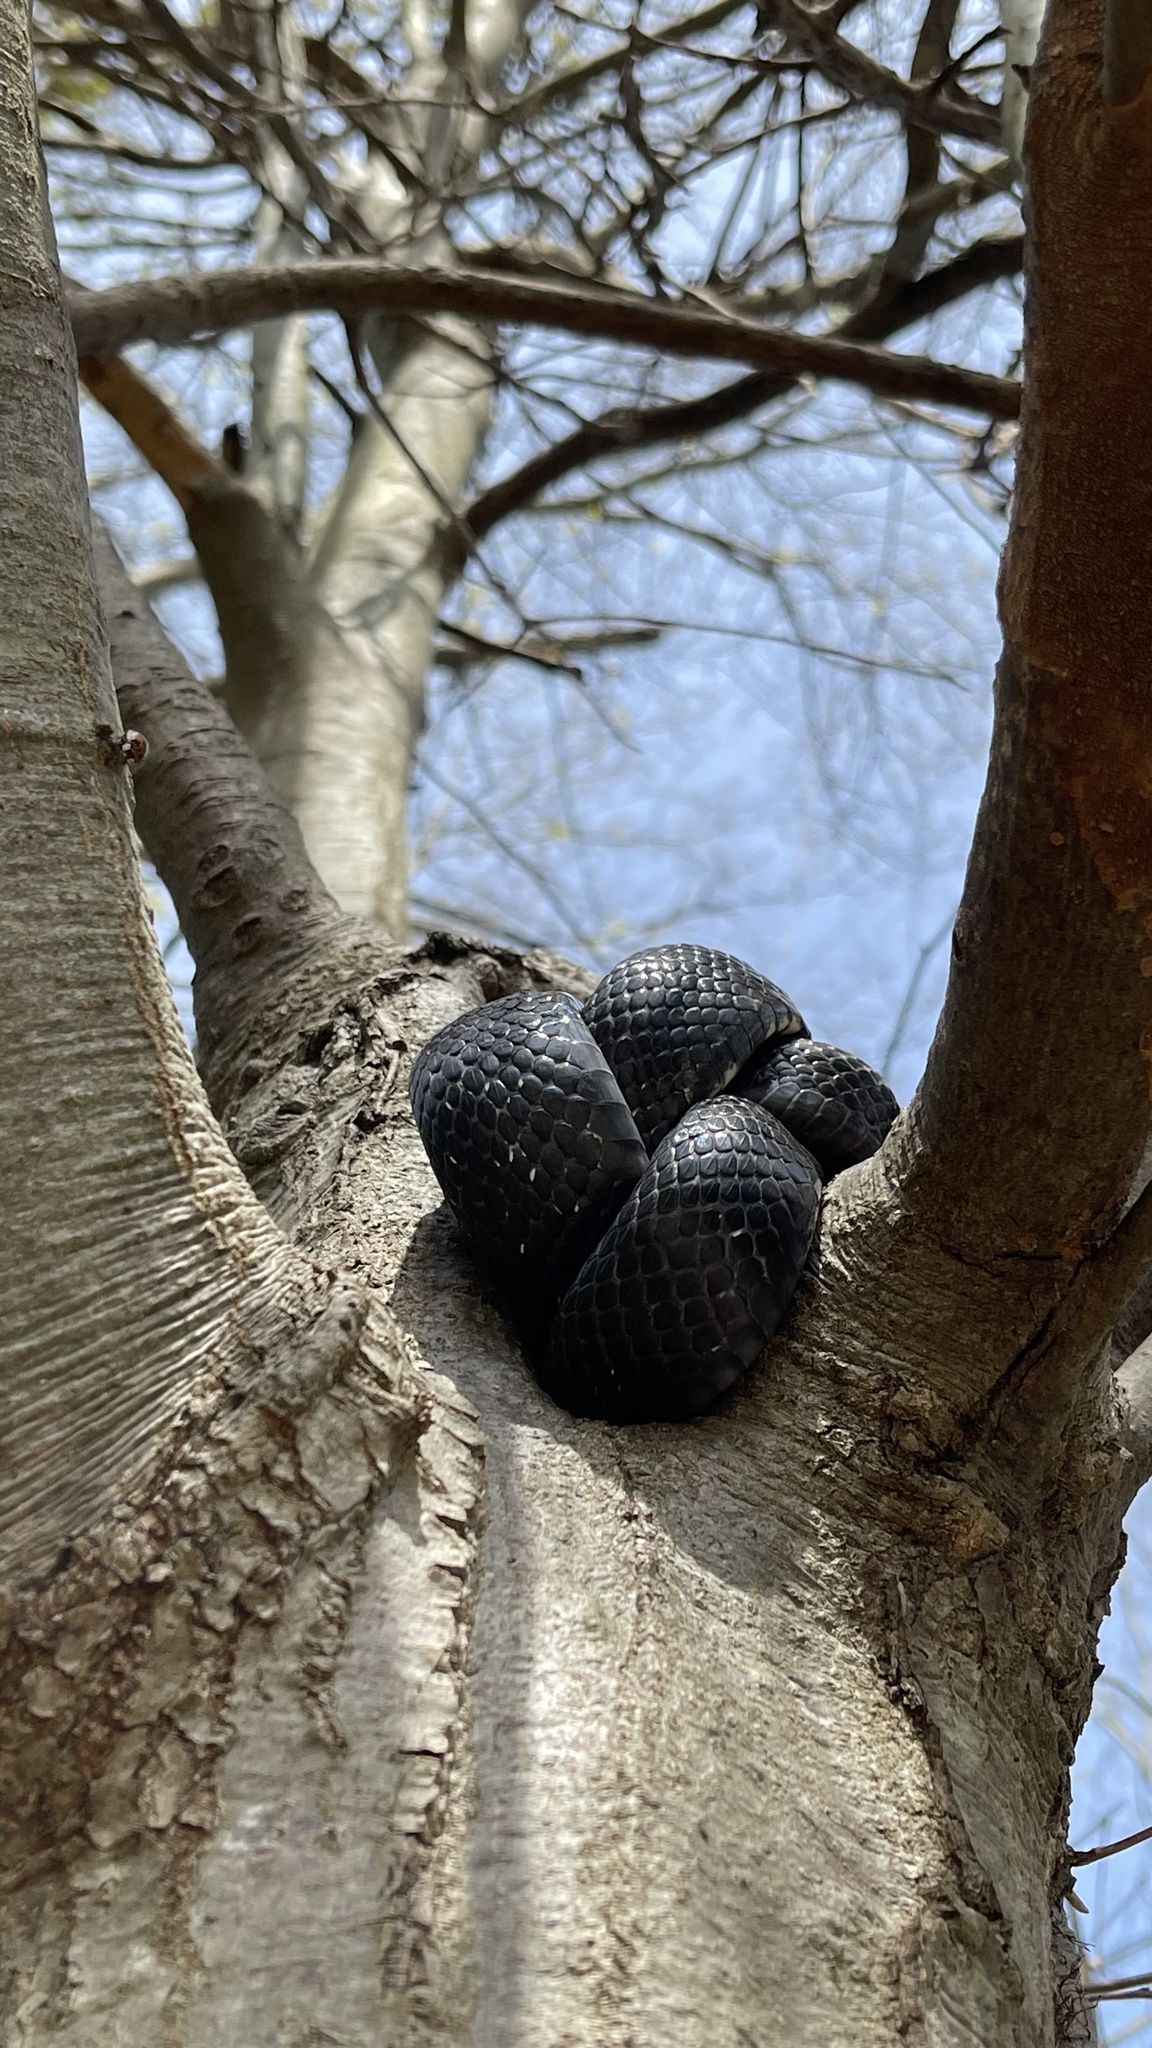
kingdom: Animalia
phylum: Chordata
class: Squamata
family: Colubridae
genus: Pantherophis
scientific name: Pantherophis
